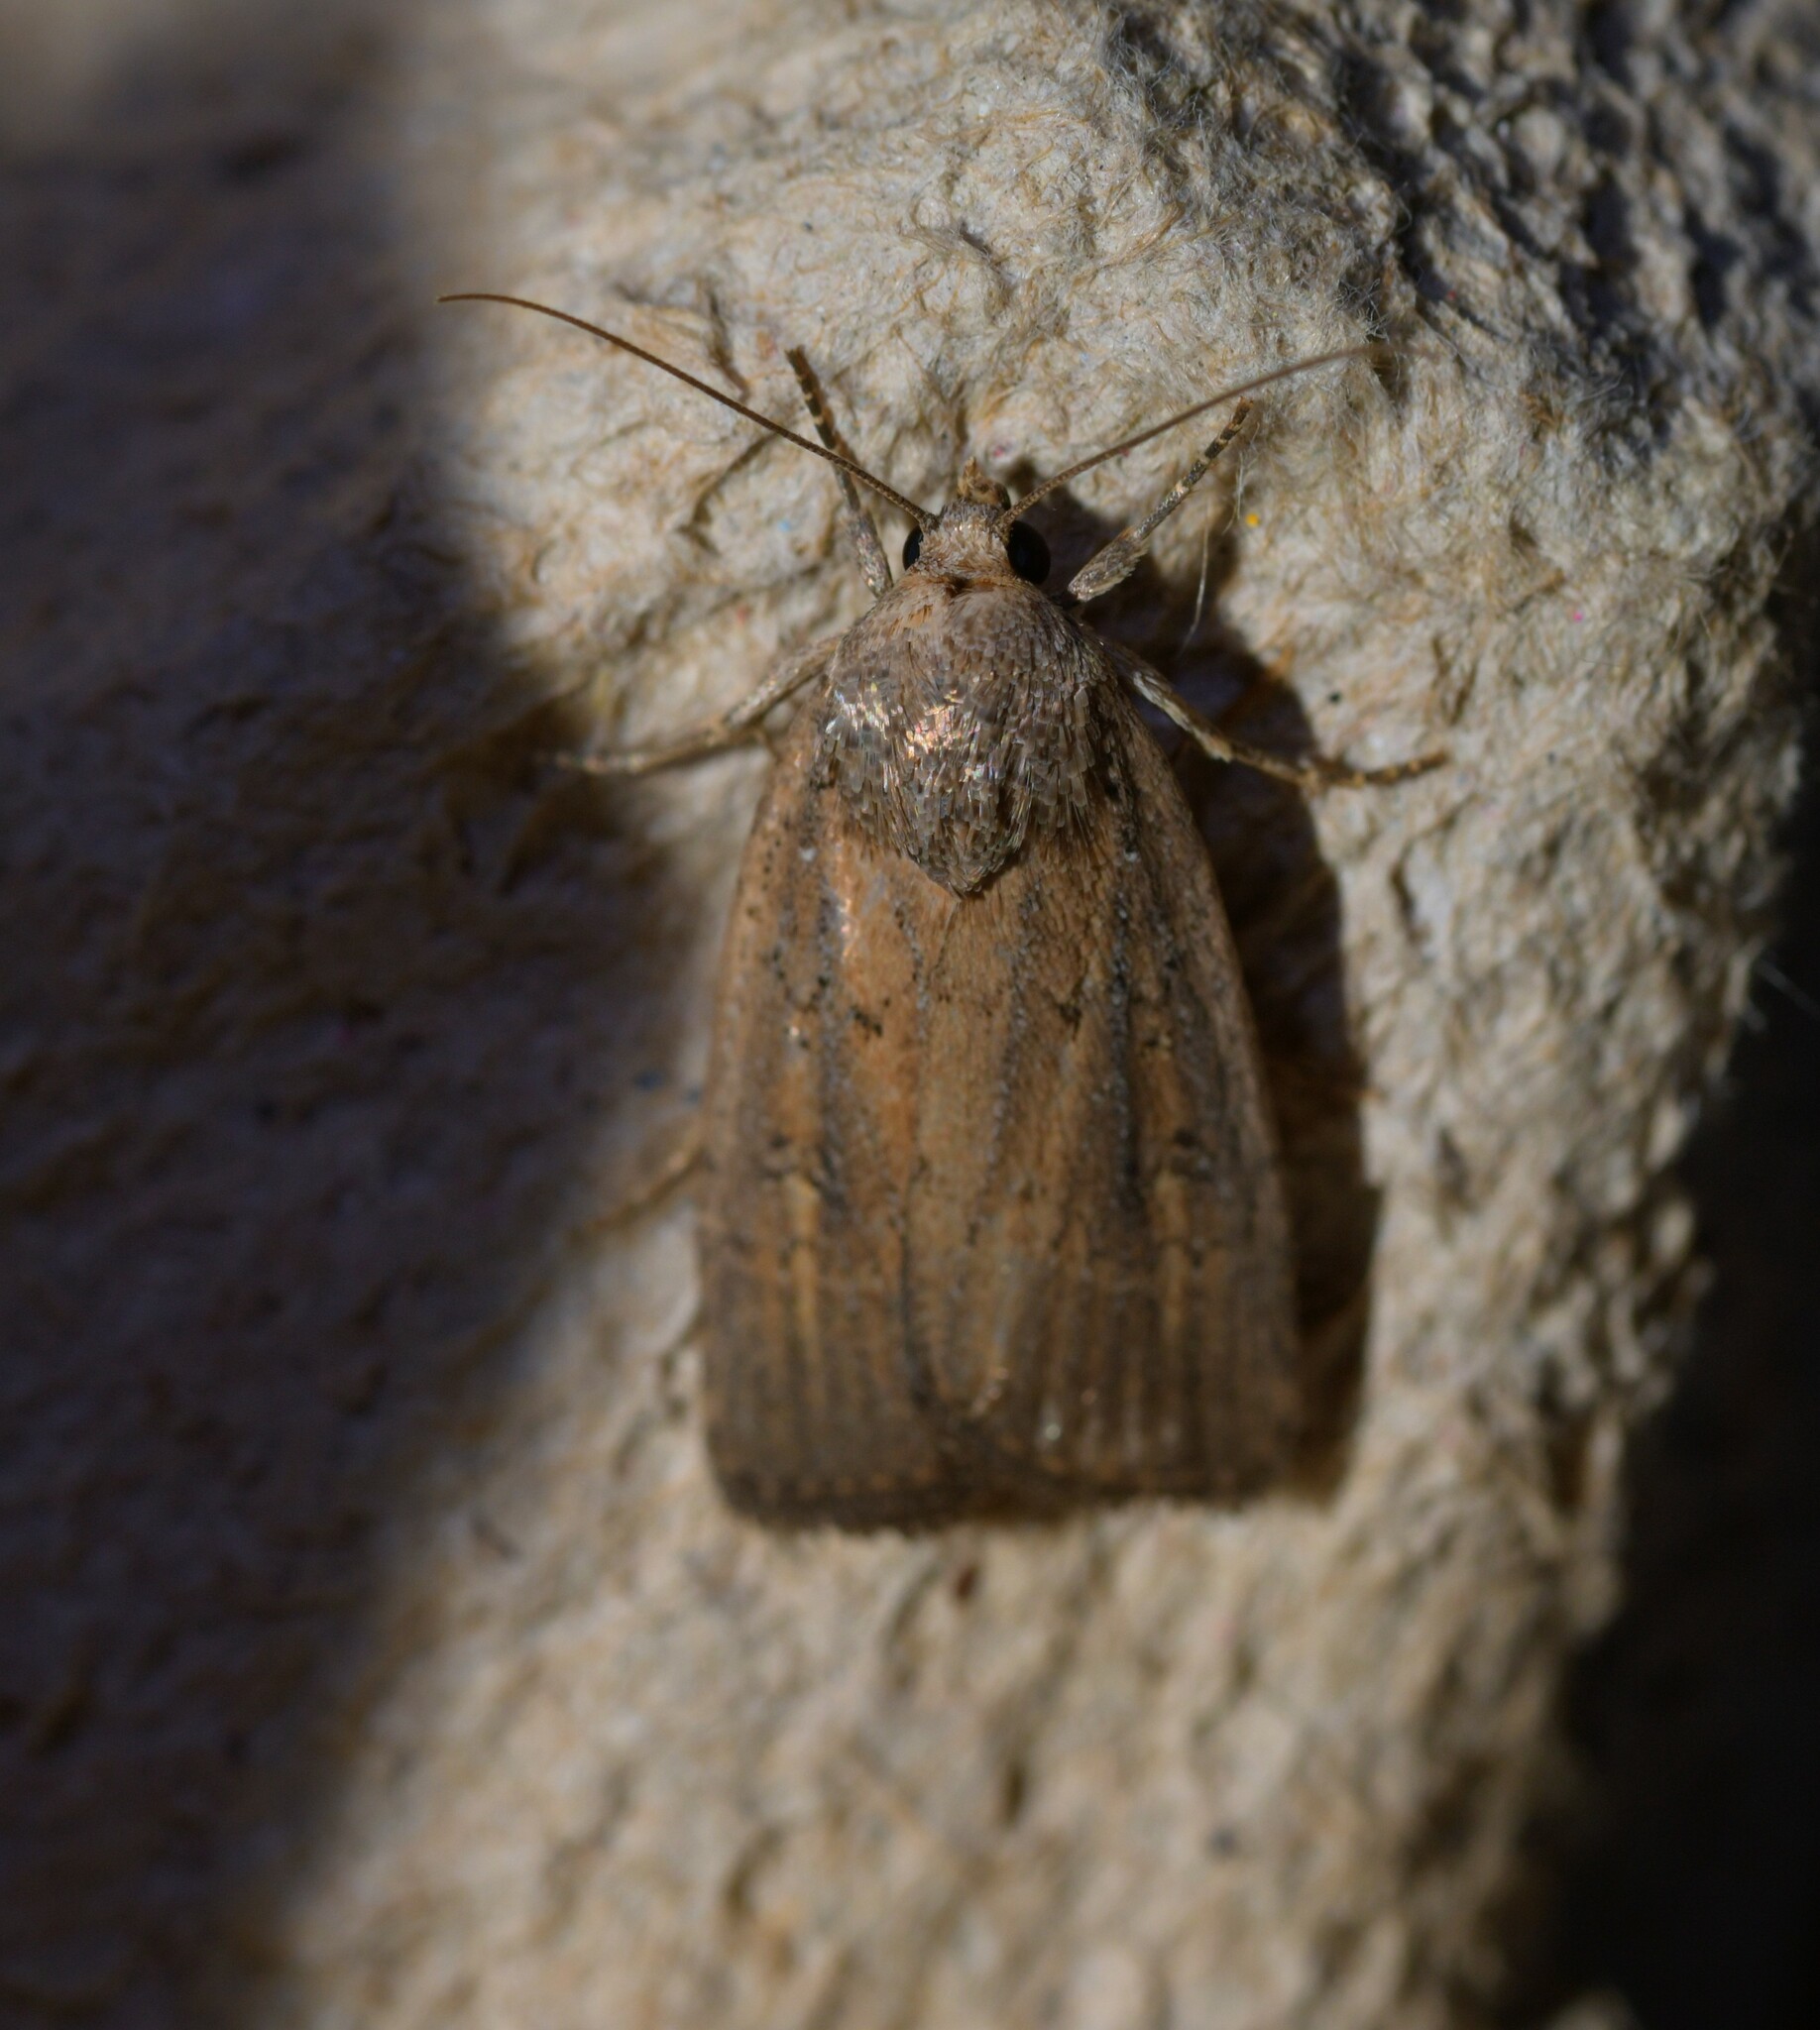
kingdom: Animalia
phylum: Arthropoda
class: Insecta
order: Lepidoptera
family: Noctuidae
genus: Athetis
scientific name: Athetis hospes
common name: Porter's rustic
